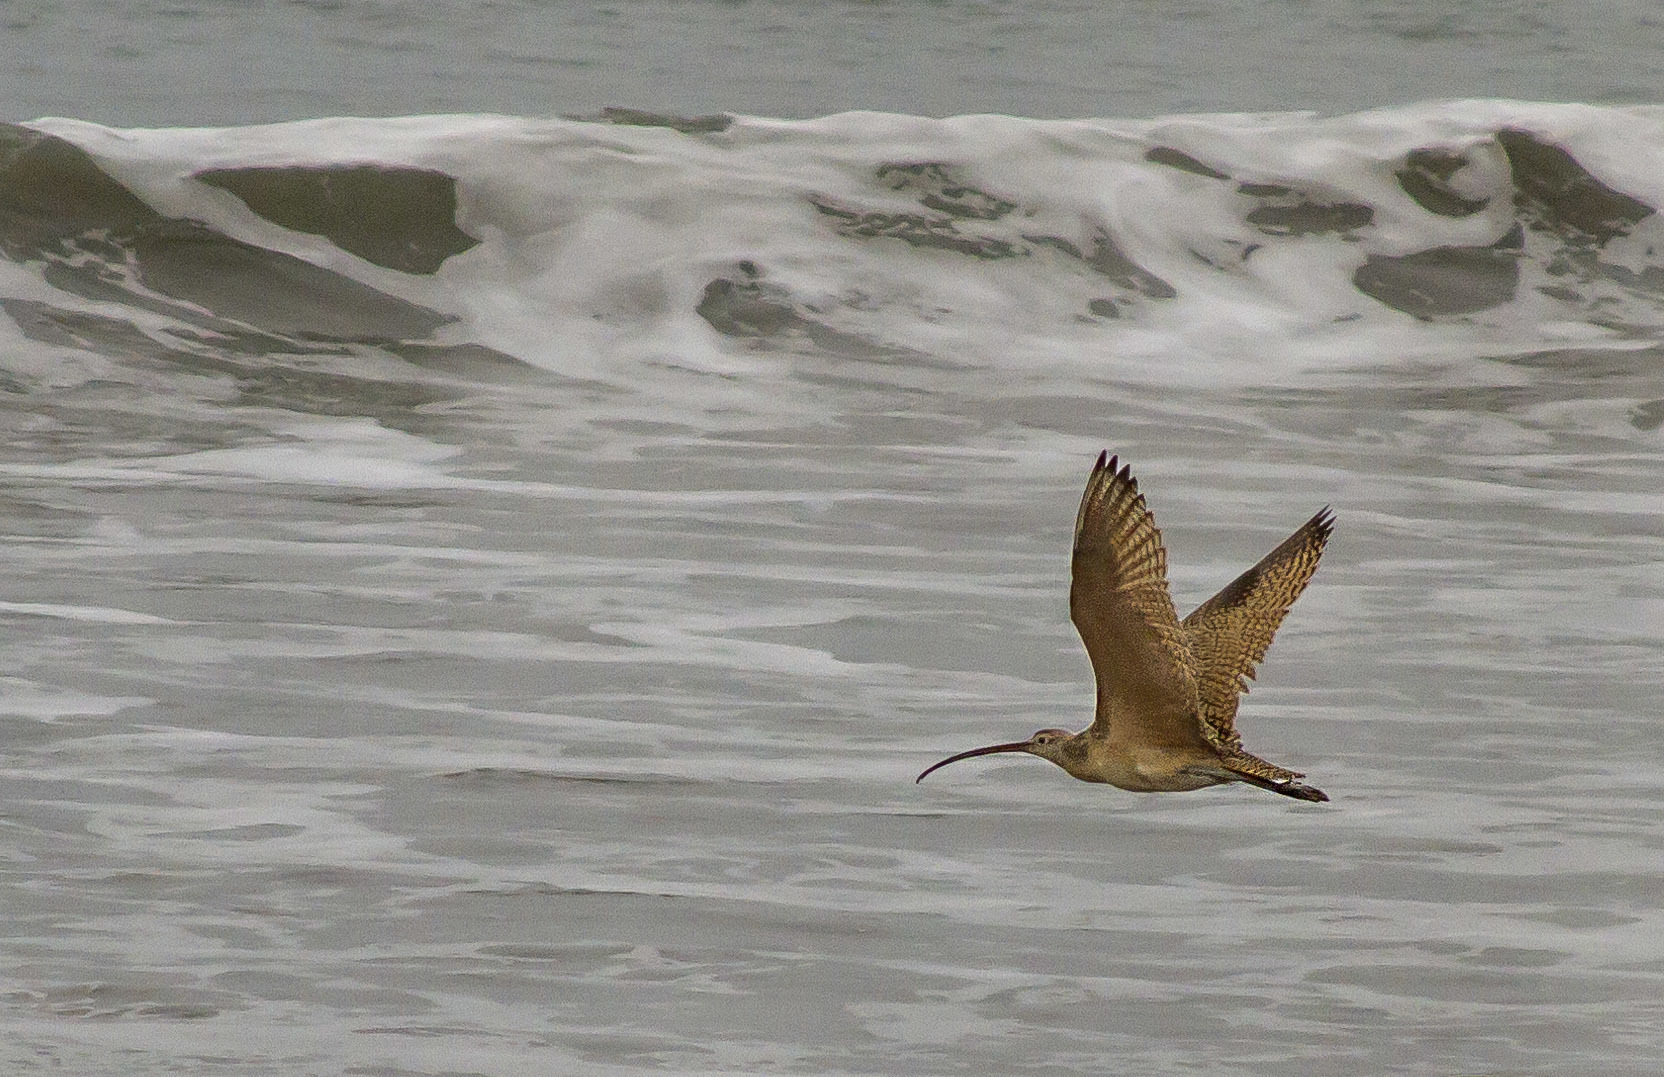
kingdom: Animalia
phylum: Chordata
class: Aves
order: Charadriiformes
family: Scolopacidae
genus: Numenius
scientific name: Numenius americanus
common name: Long-billed curlew
